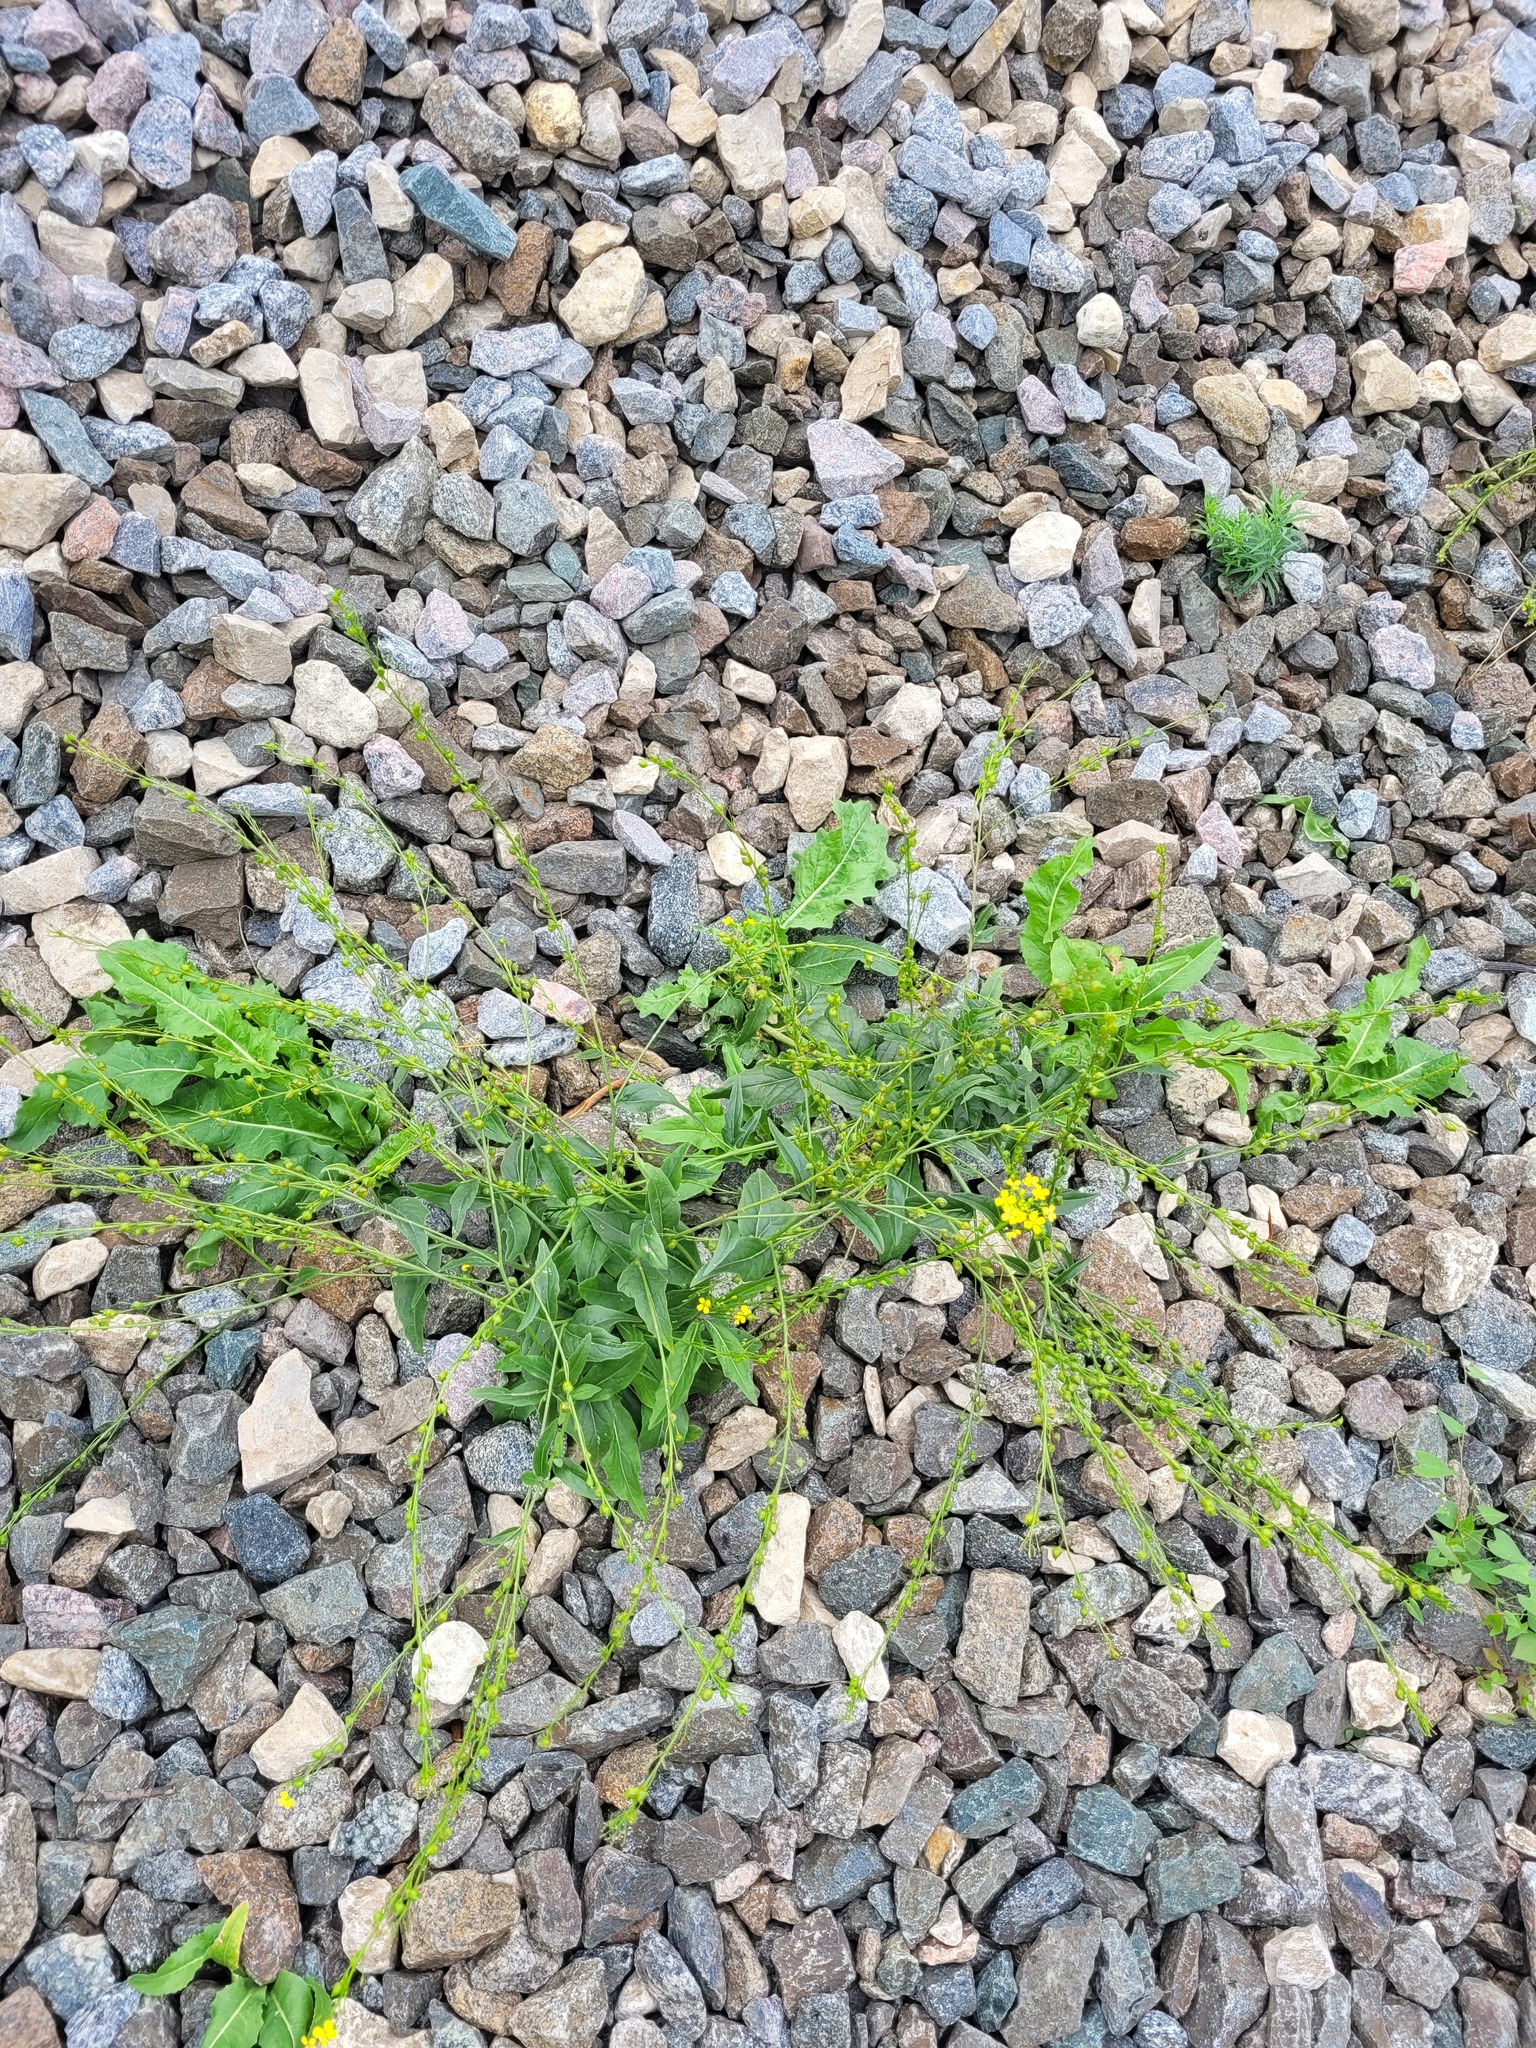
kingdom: Plantae
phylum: Tracheophyta
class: Magnoliopsida
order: Brassicales
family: Brassicaceae
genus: Bunias
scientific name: Bunias orientalis
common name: Warty-cabbage
